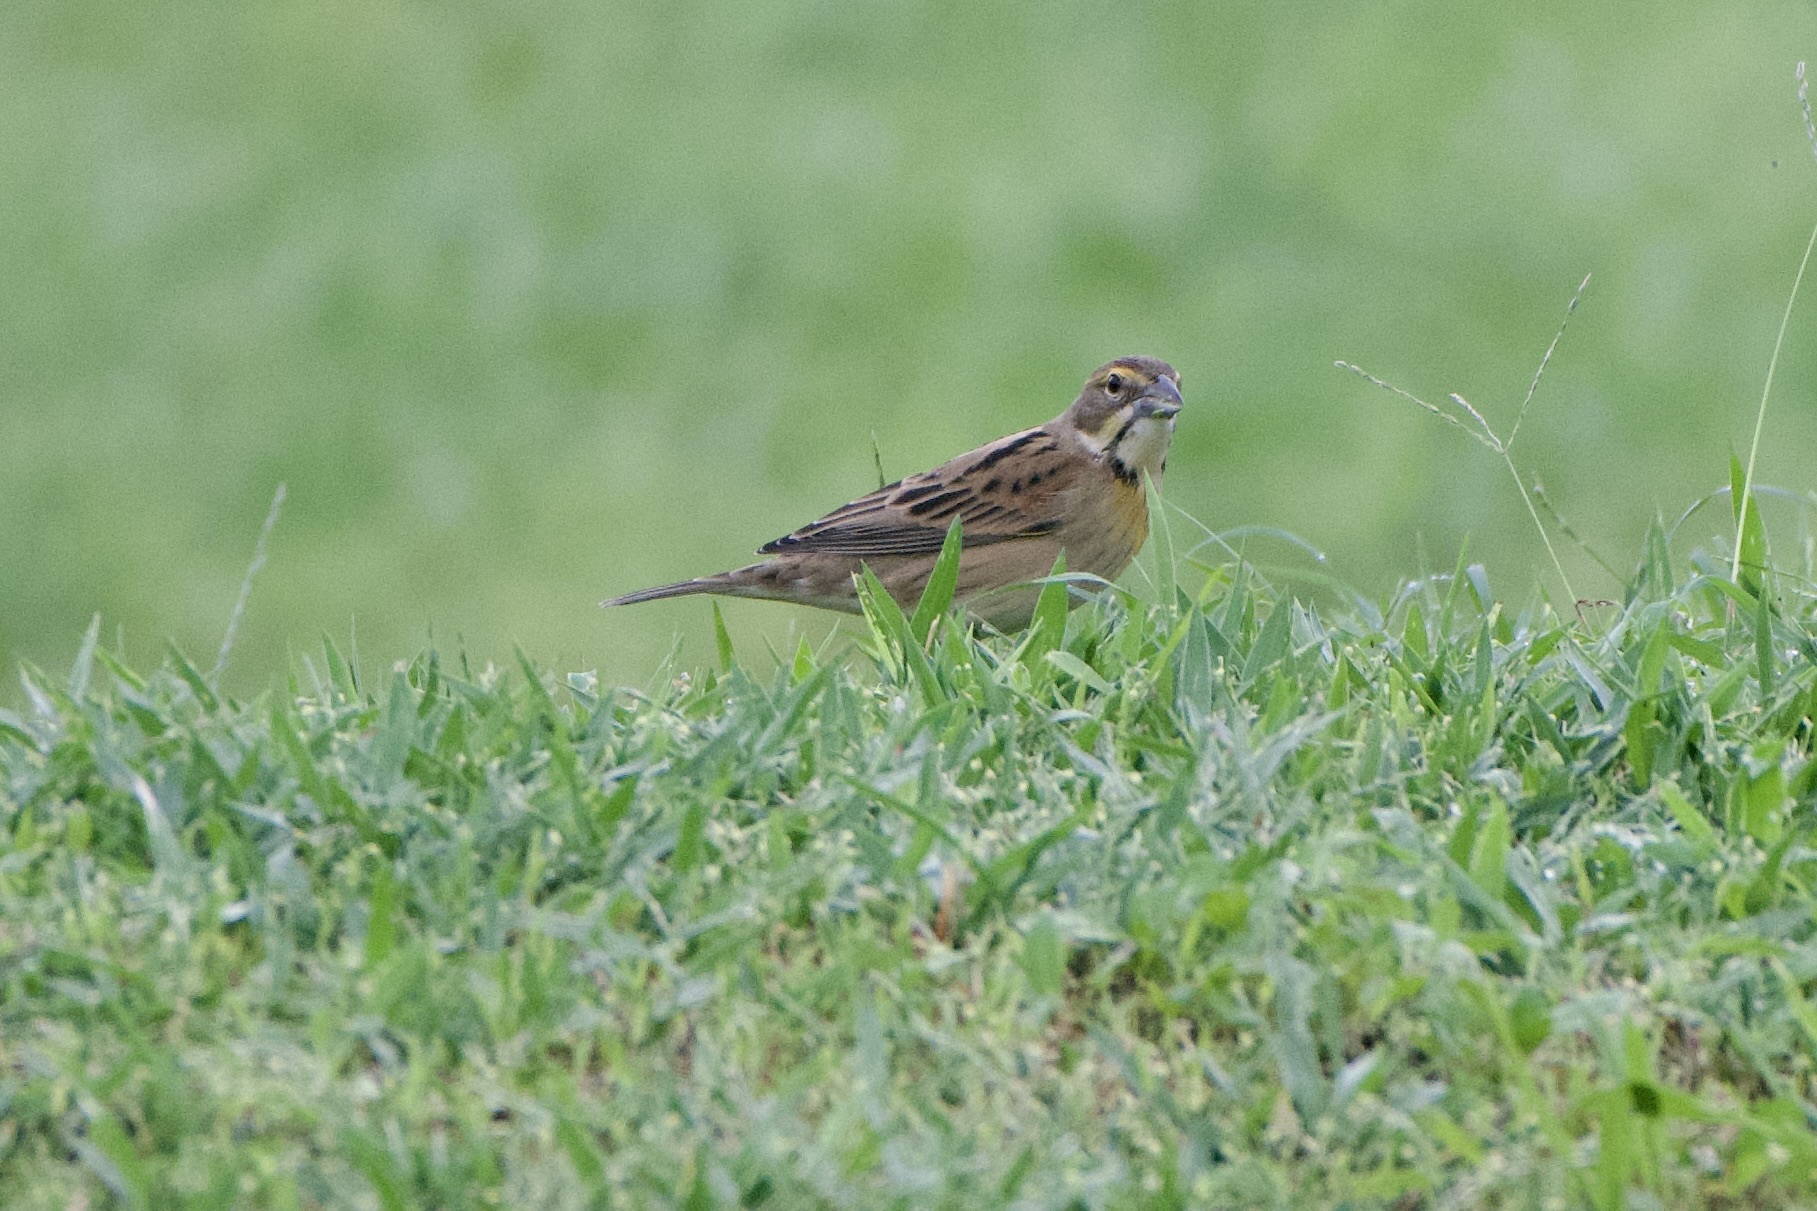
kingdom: Animalia
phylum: Chordata
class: Aves
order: Passeriformes
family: Cardinalidae
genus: Spiza
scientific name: Spiza americana
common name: Dickcissel
